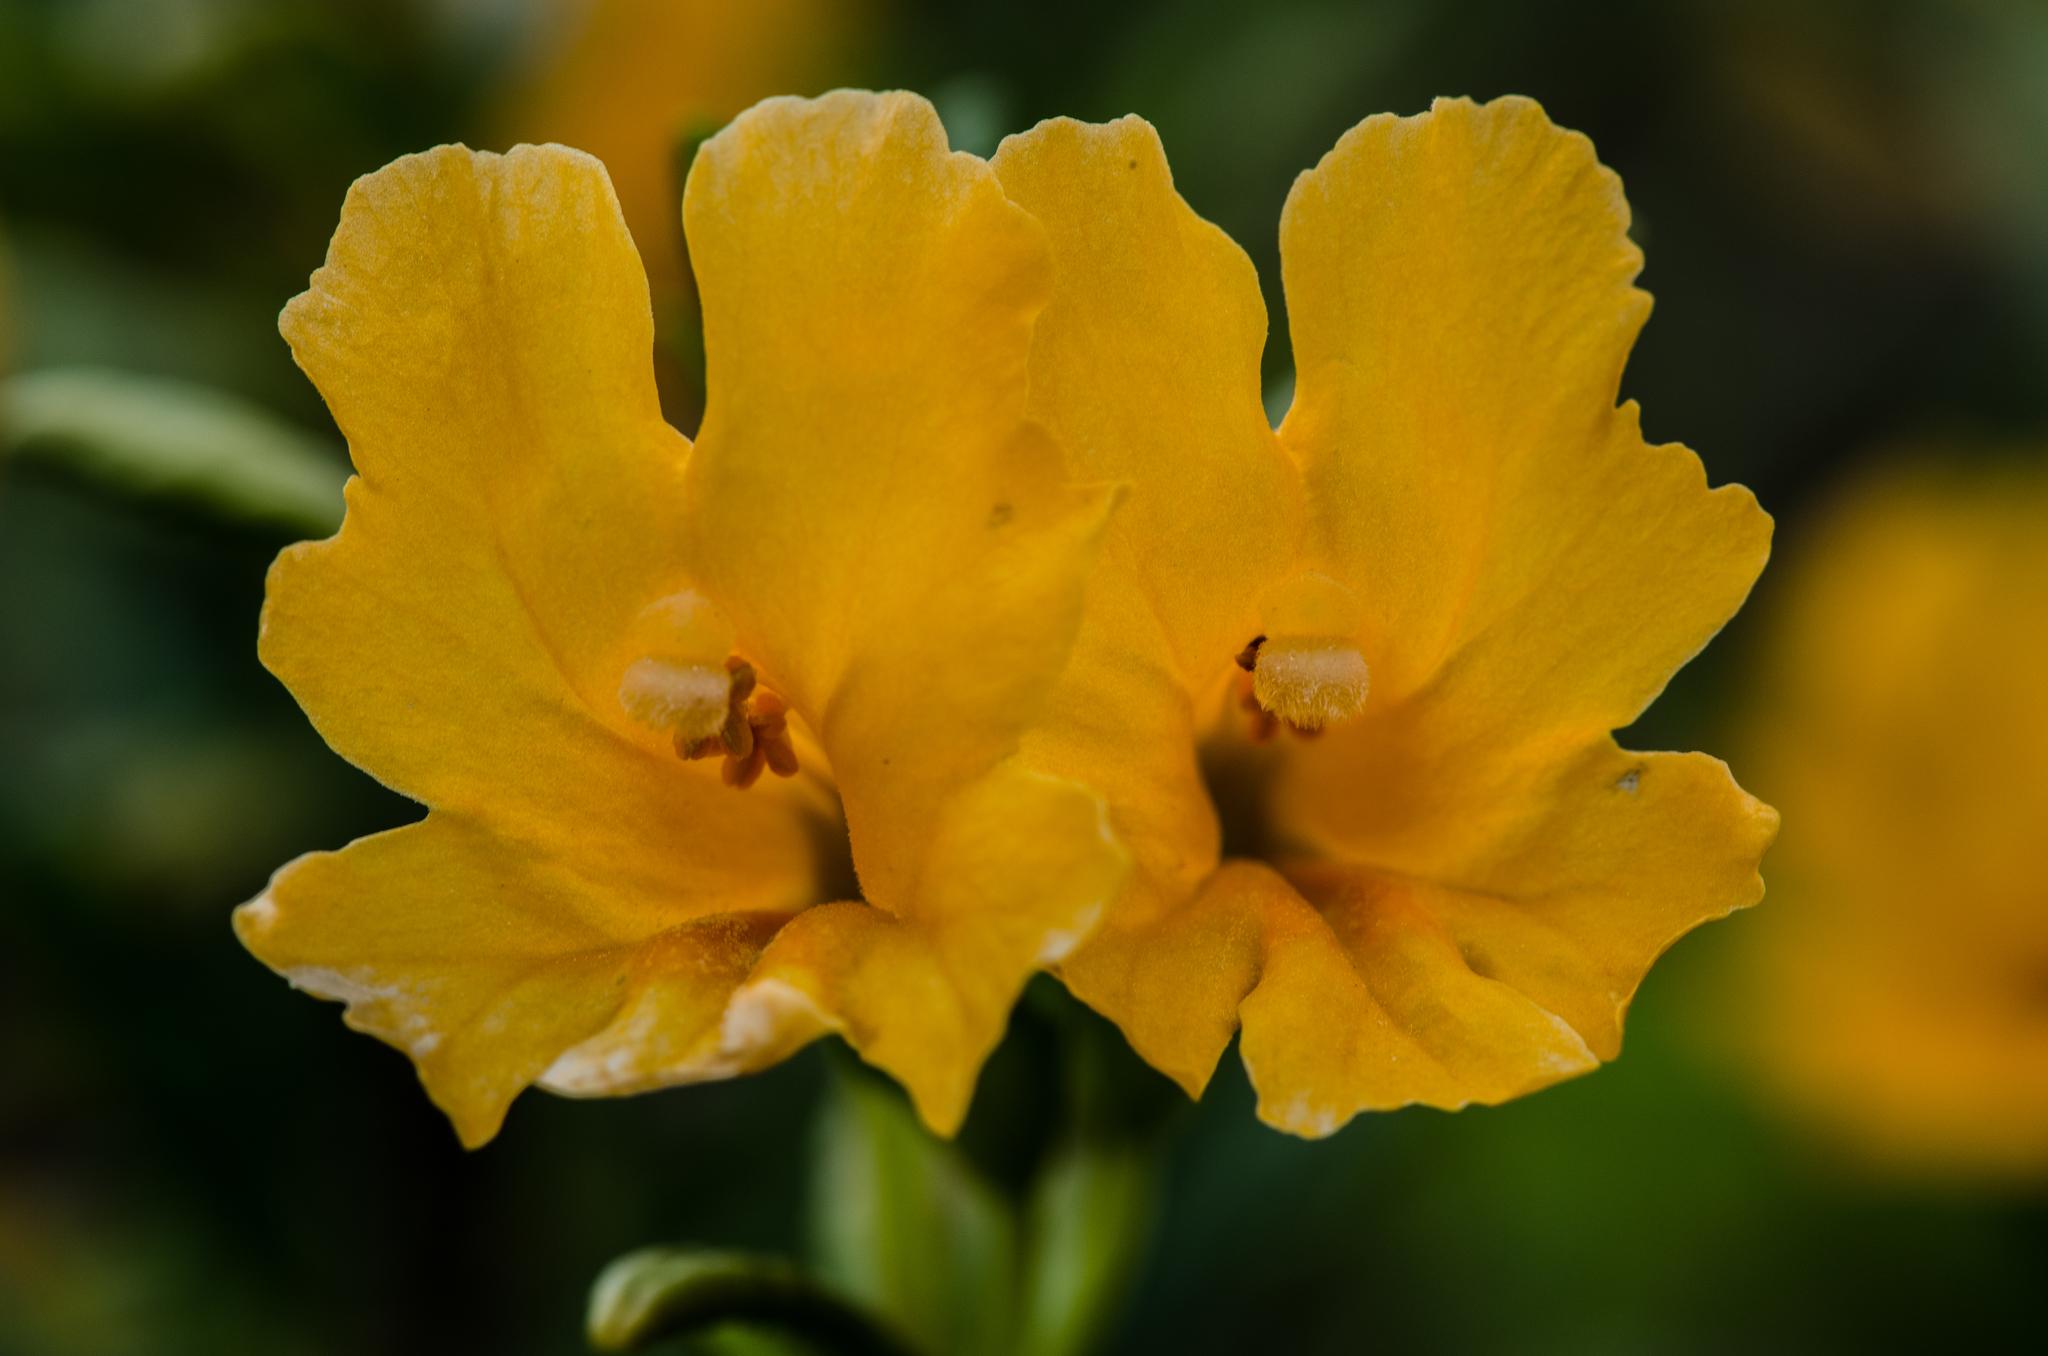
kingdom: Plantae
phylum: Tracheophyta
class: Magnoliopsida
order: Lamiales
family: Phrymaceae
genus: Diplacus
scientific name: Diplacus aurantiacus
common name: Bush monkey-flower
